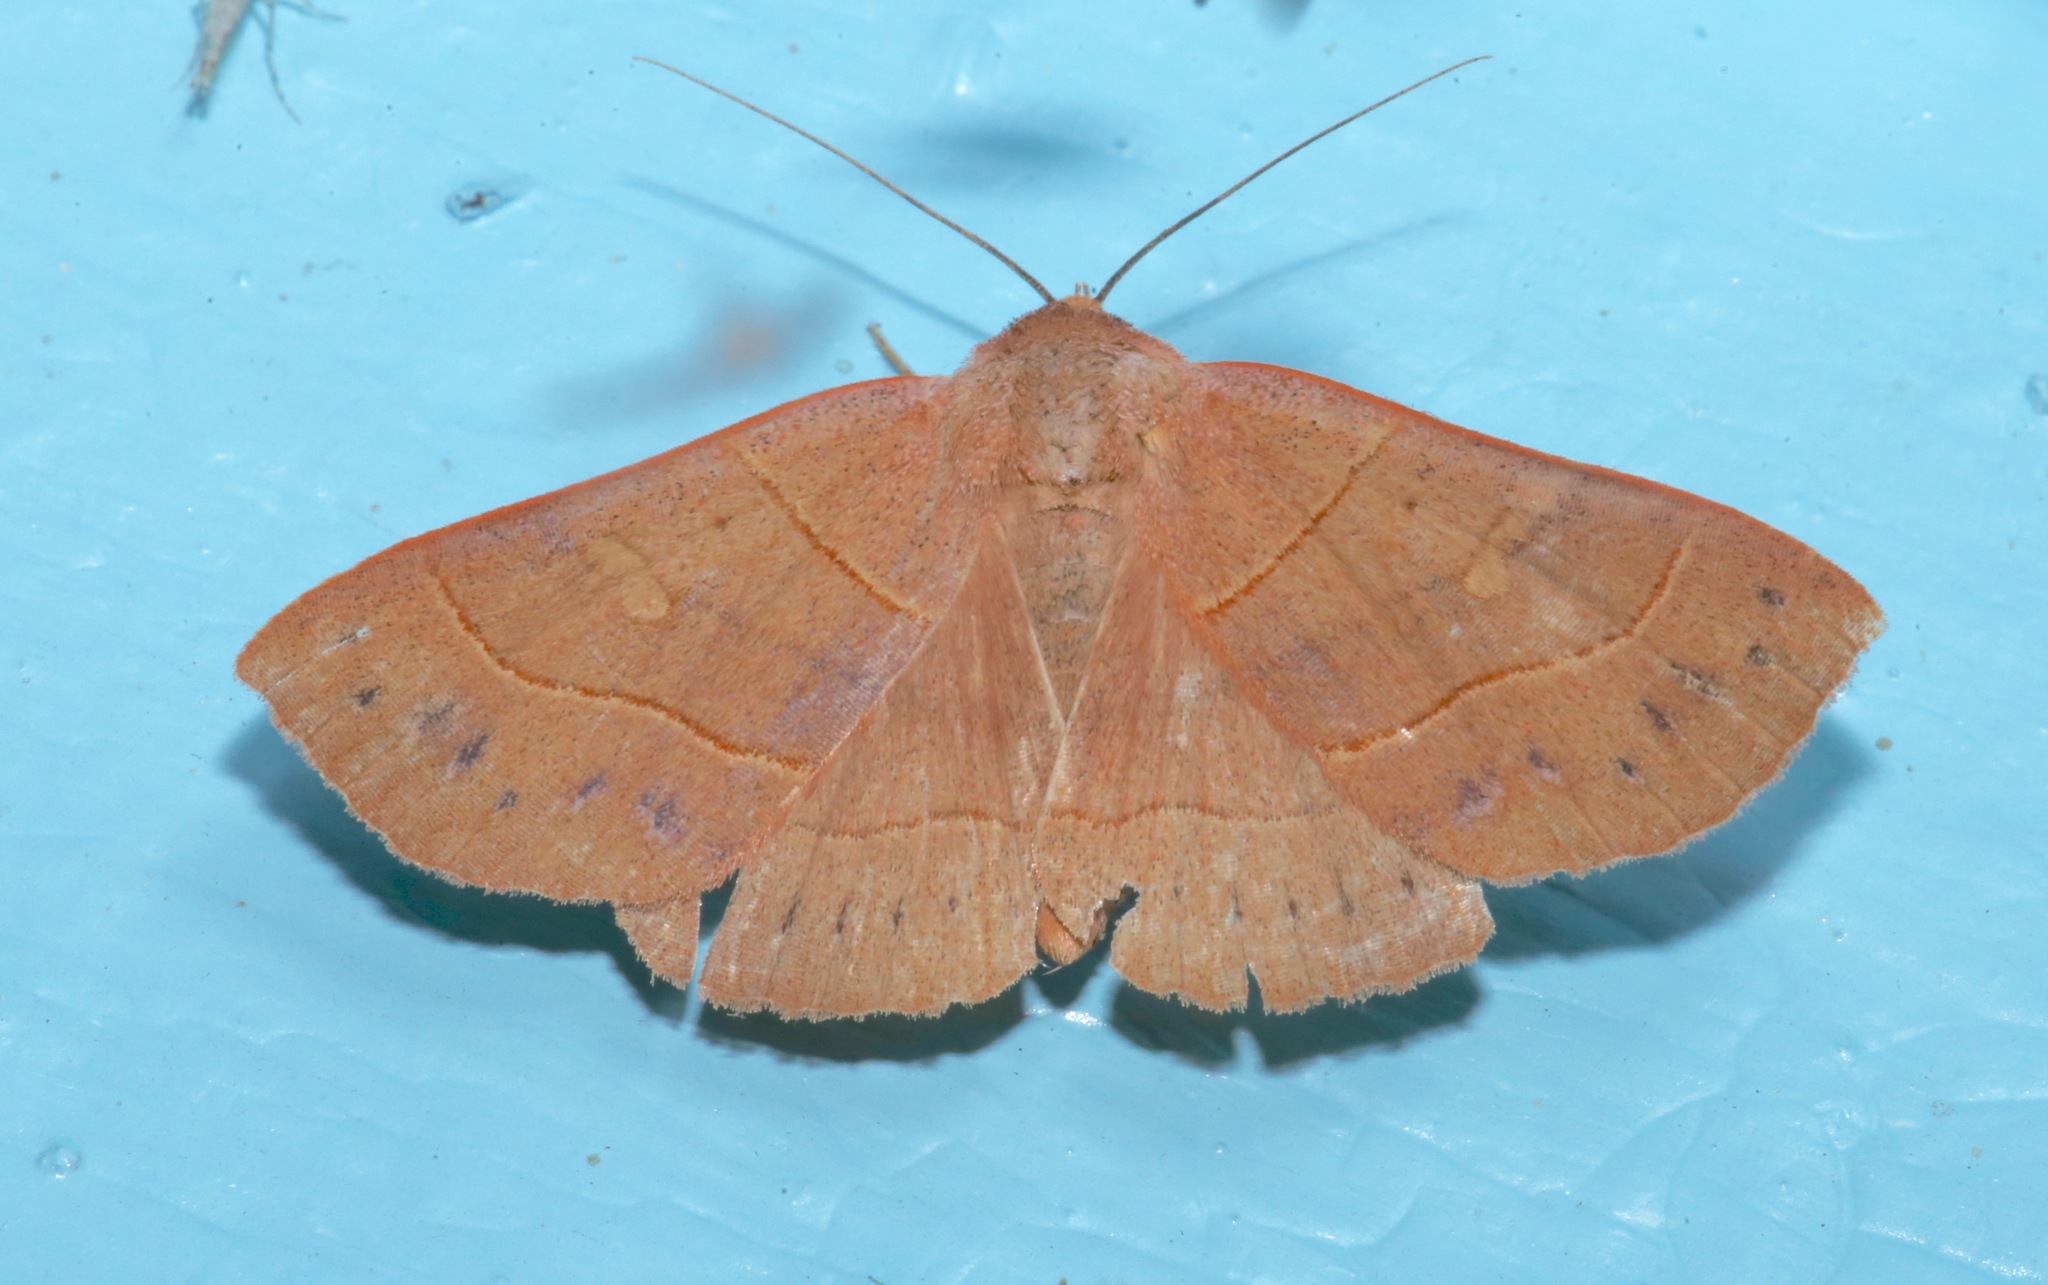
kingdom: Animalia
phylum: Arthropoda
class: Insecta
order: Lepidoptera
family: Erebidae
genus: Panopoda
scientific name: Panopoda rufimargo
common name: Red-lined panopoda moth
